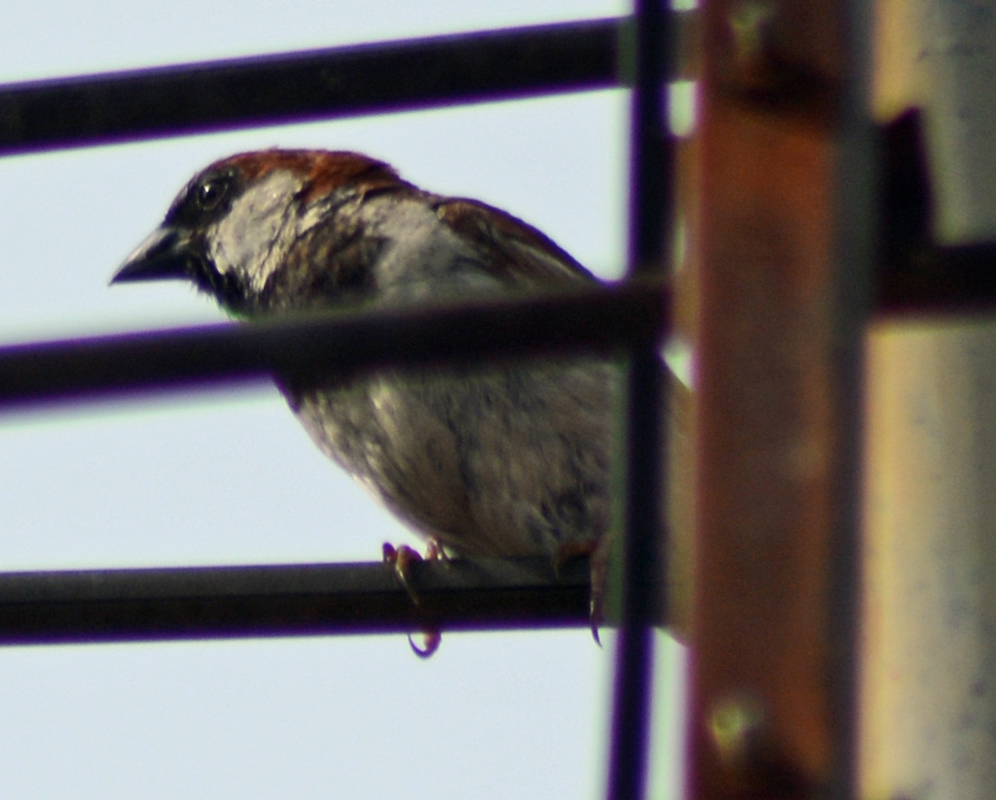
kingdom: Animalia
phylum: Chordata
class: Aves
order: Passeriformes
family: Passeridae
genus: Passer
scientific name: Passer domesticus
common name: House sparrow
